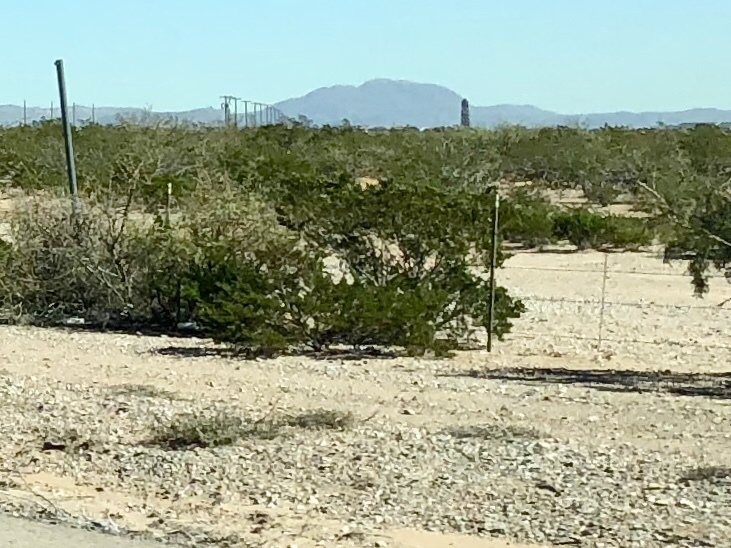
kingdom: Plantae
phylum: Tracheophyta
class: Magnoliopsida
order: Zygophyllales
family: Zygophyllaceae
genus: Larrea
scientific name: Larrea tridentata
